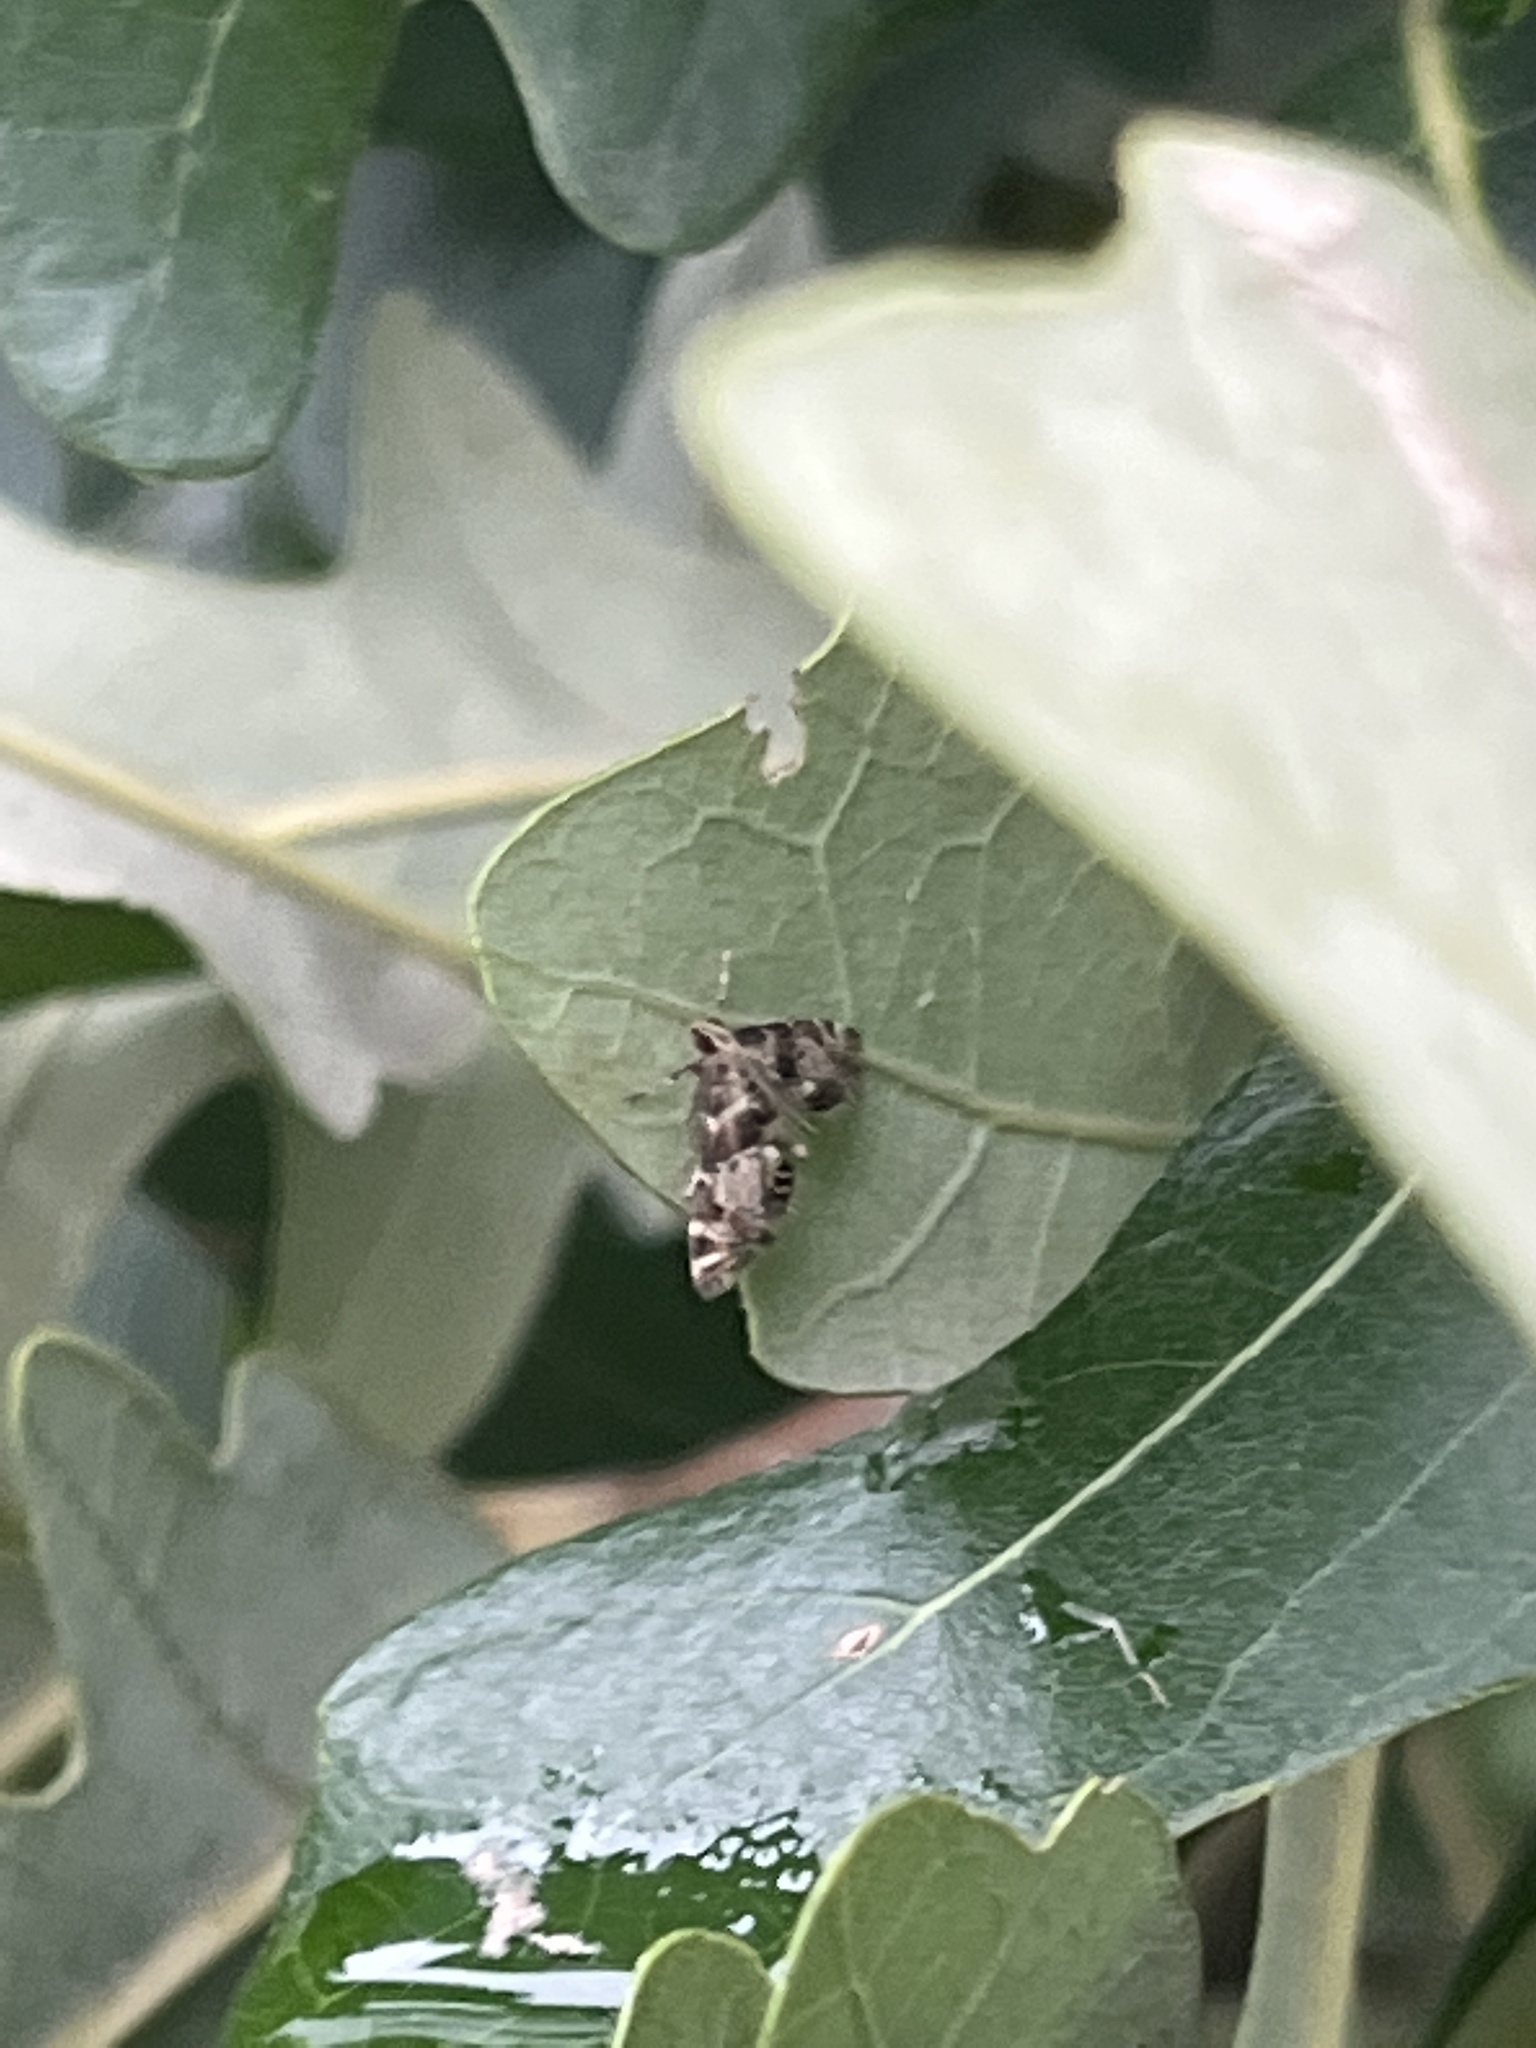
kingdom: Animalia
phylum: Arthropoda
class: Insecta
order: Lepidoptera
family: Crambidae
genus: Petrophila
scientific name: Petrophila fulicalis
